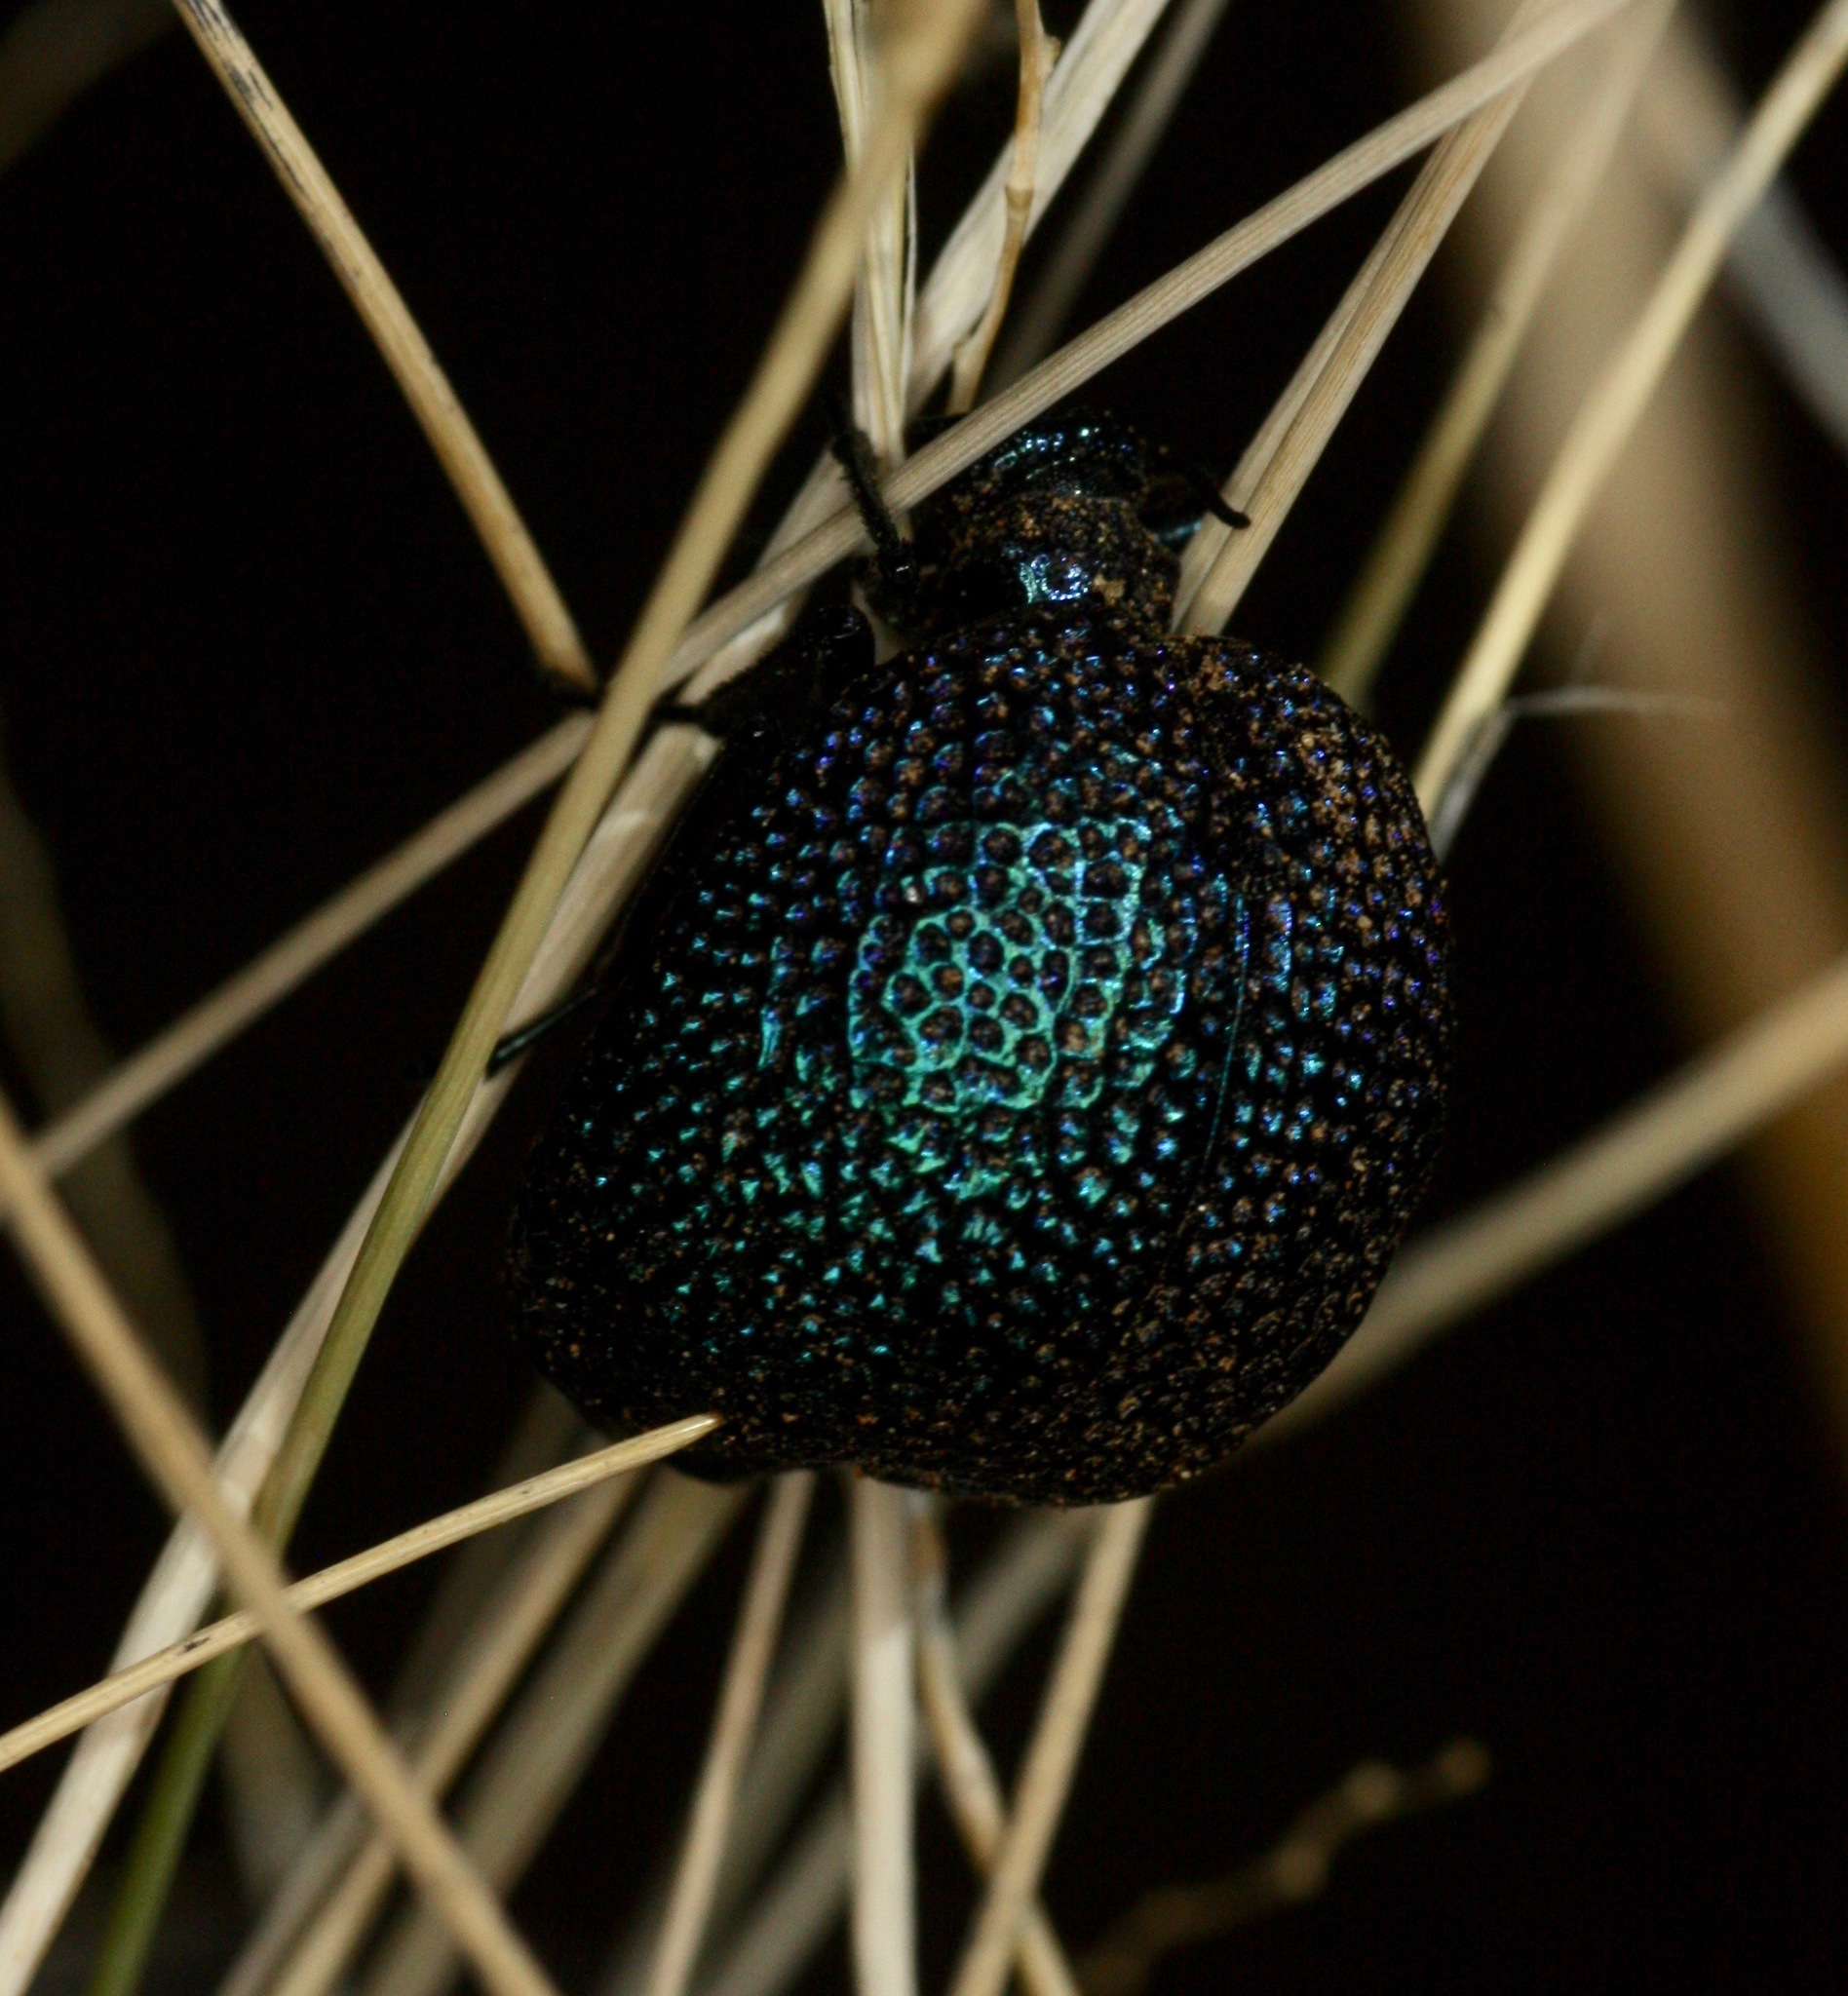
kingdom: Animalia
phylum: Arthropoda
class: Insecta
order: Coleoptera
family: Meloidae
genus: Cysteodemus
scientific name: Cysteodemus wislizeni
